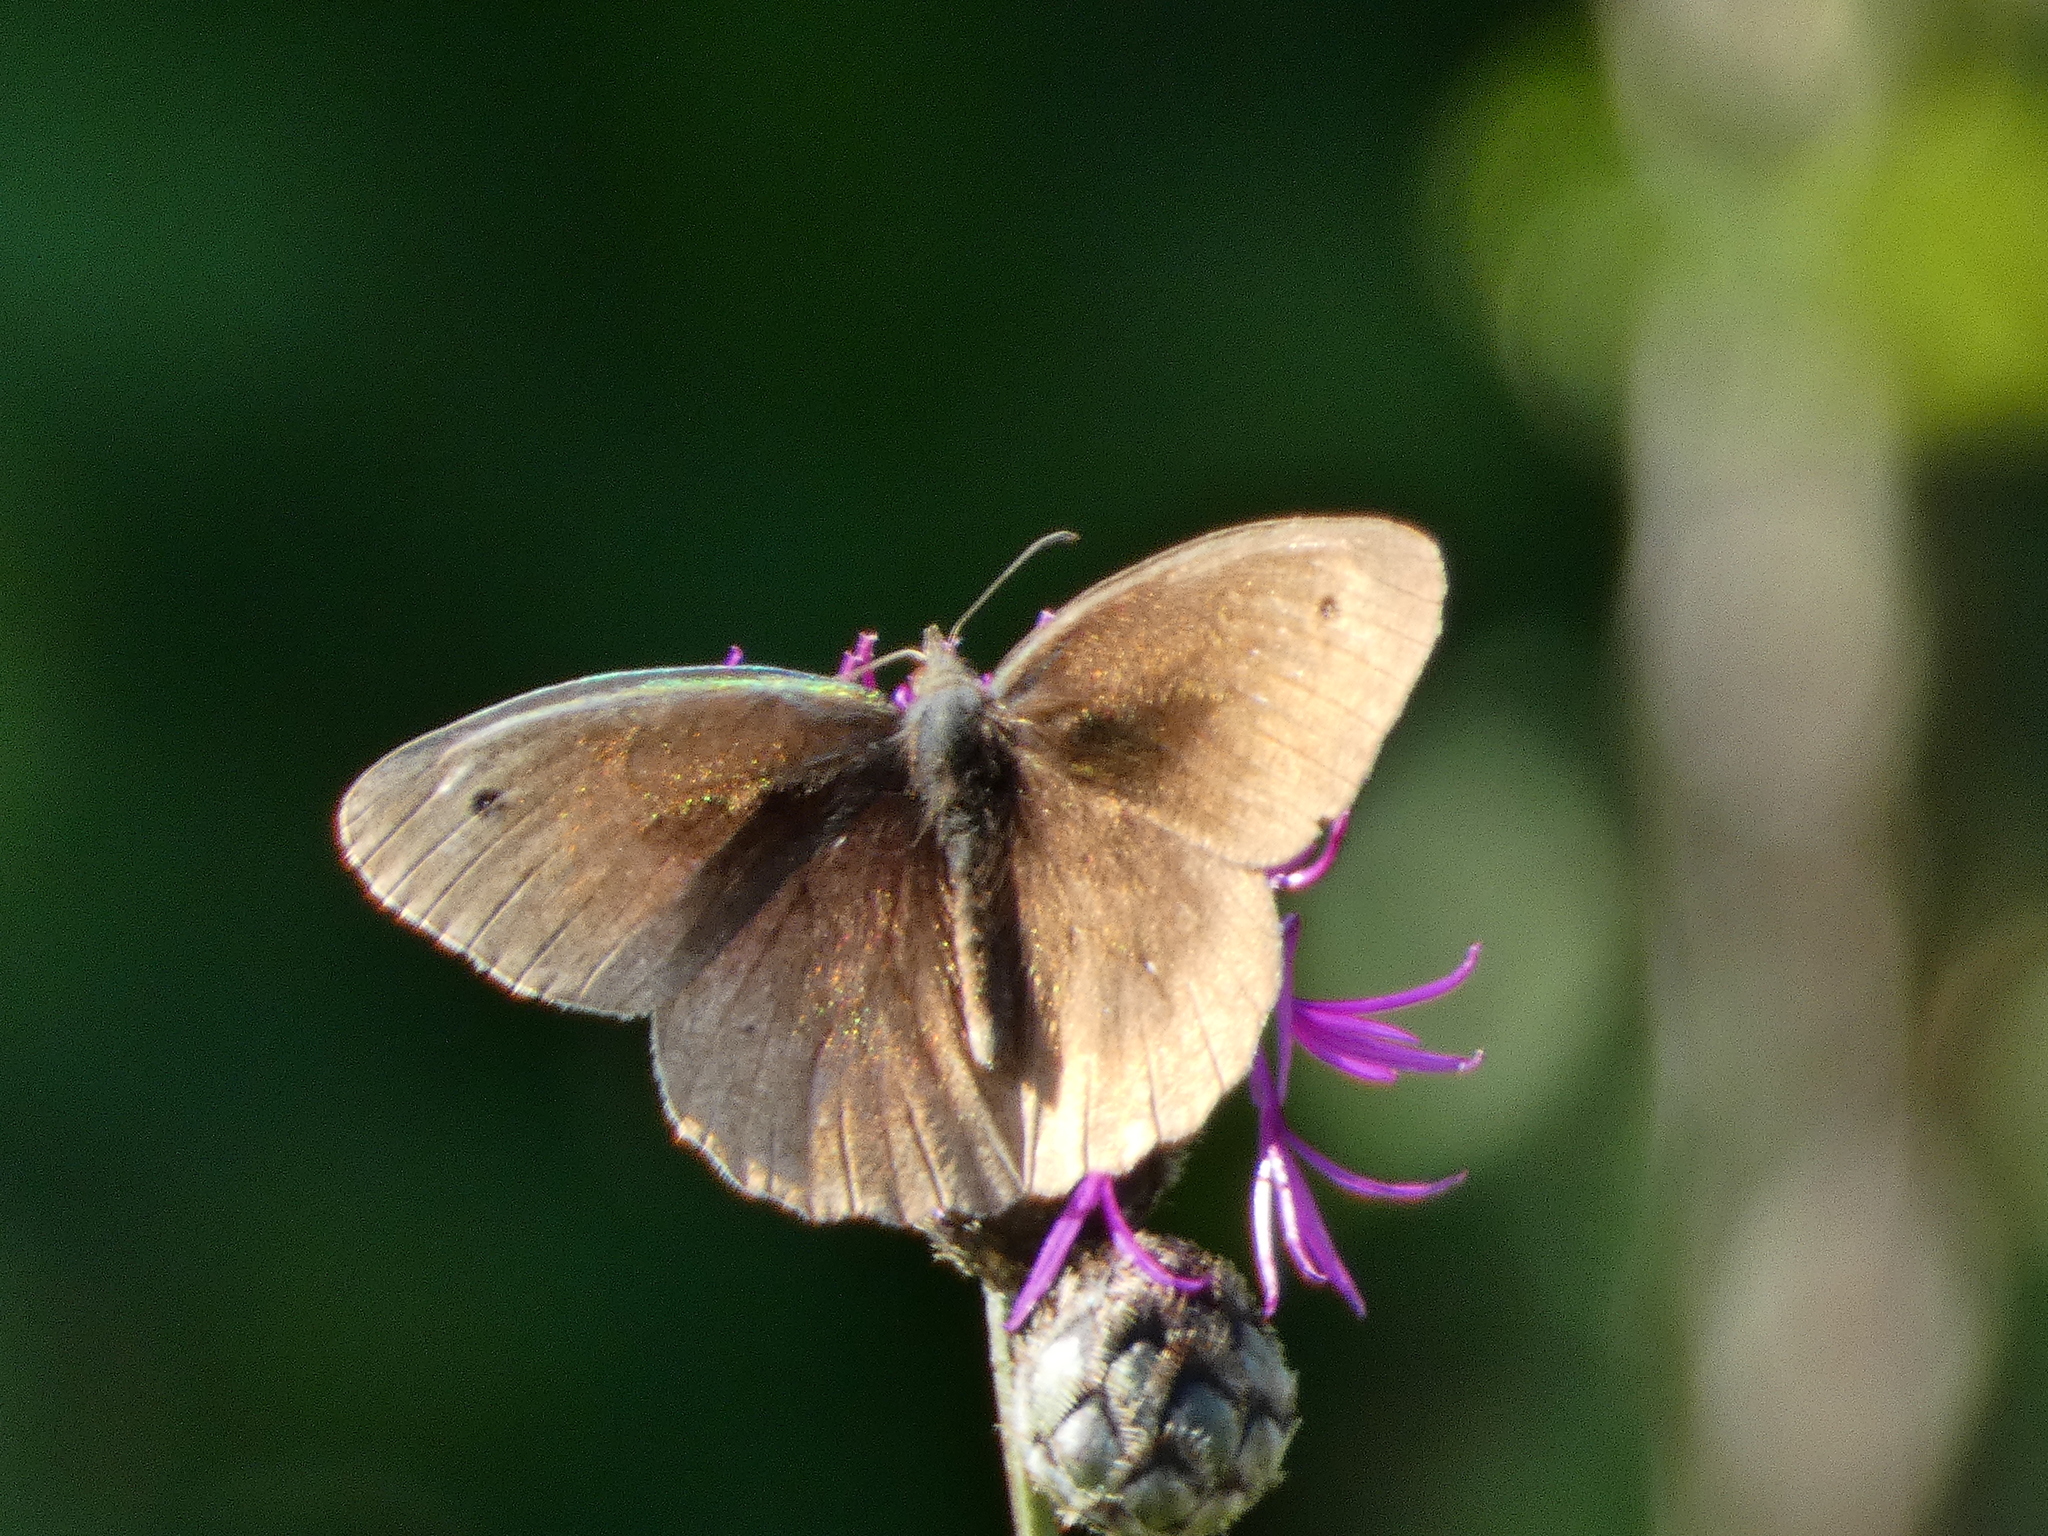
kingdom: Animalia
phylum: Arthropoda
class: Insecta
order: Lepidoptera
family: Nymphalidae
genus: Maniola
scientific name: Maniola jurtina
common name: Meadow brown
